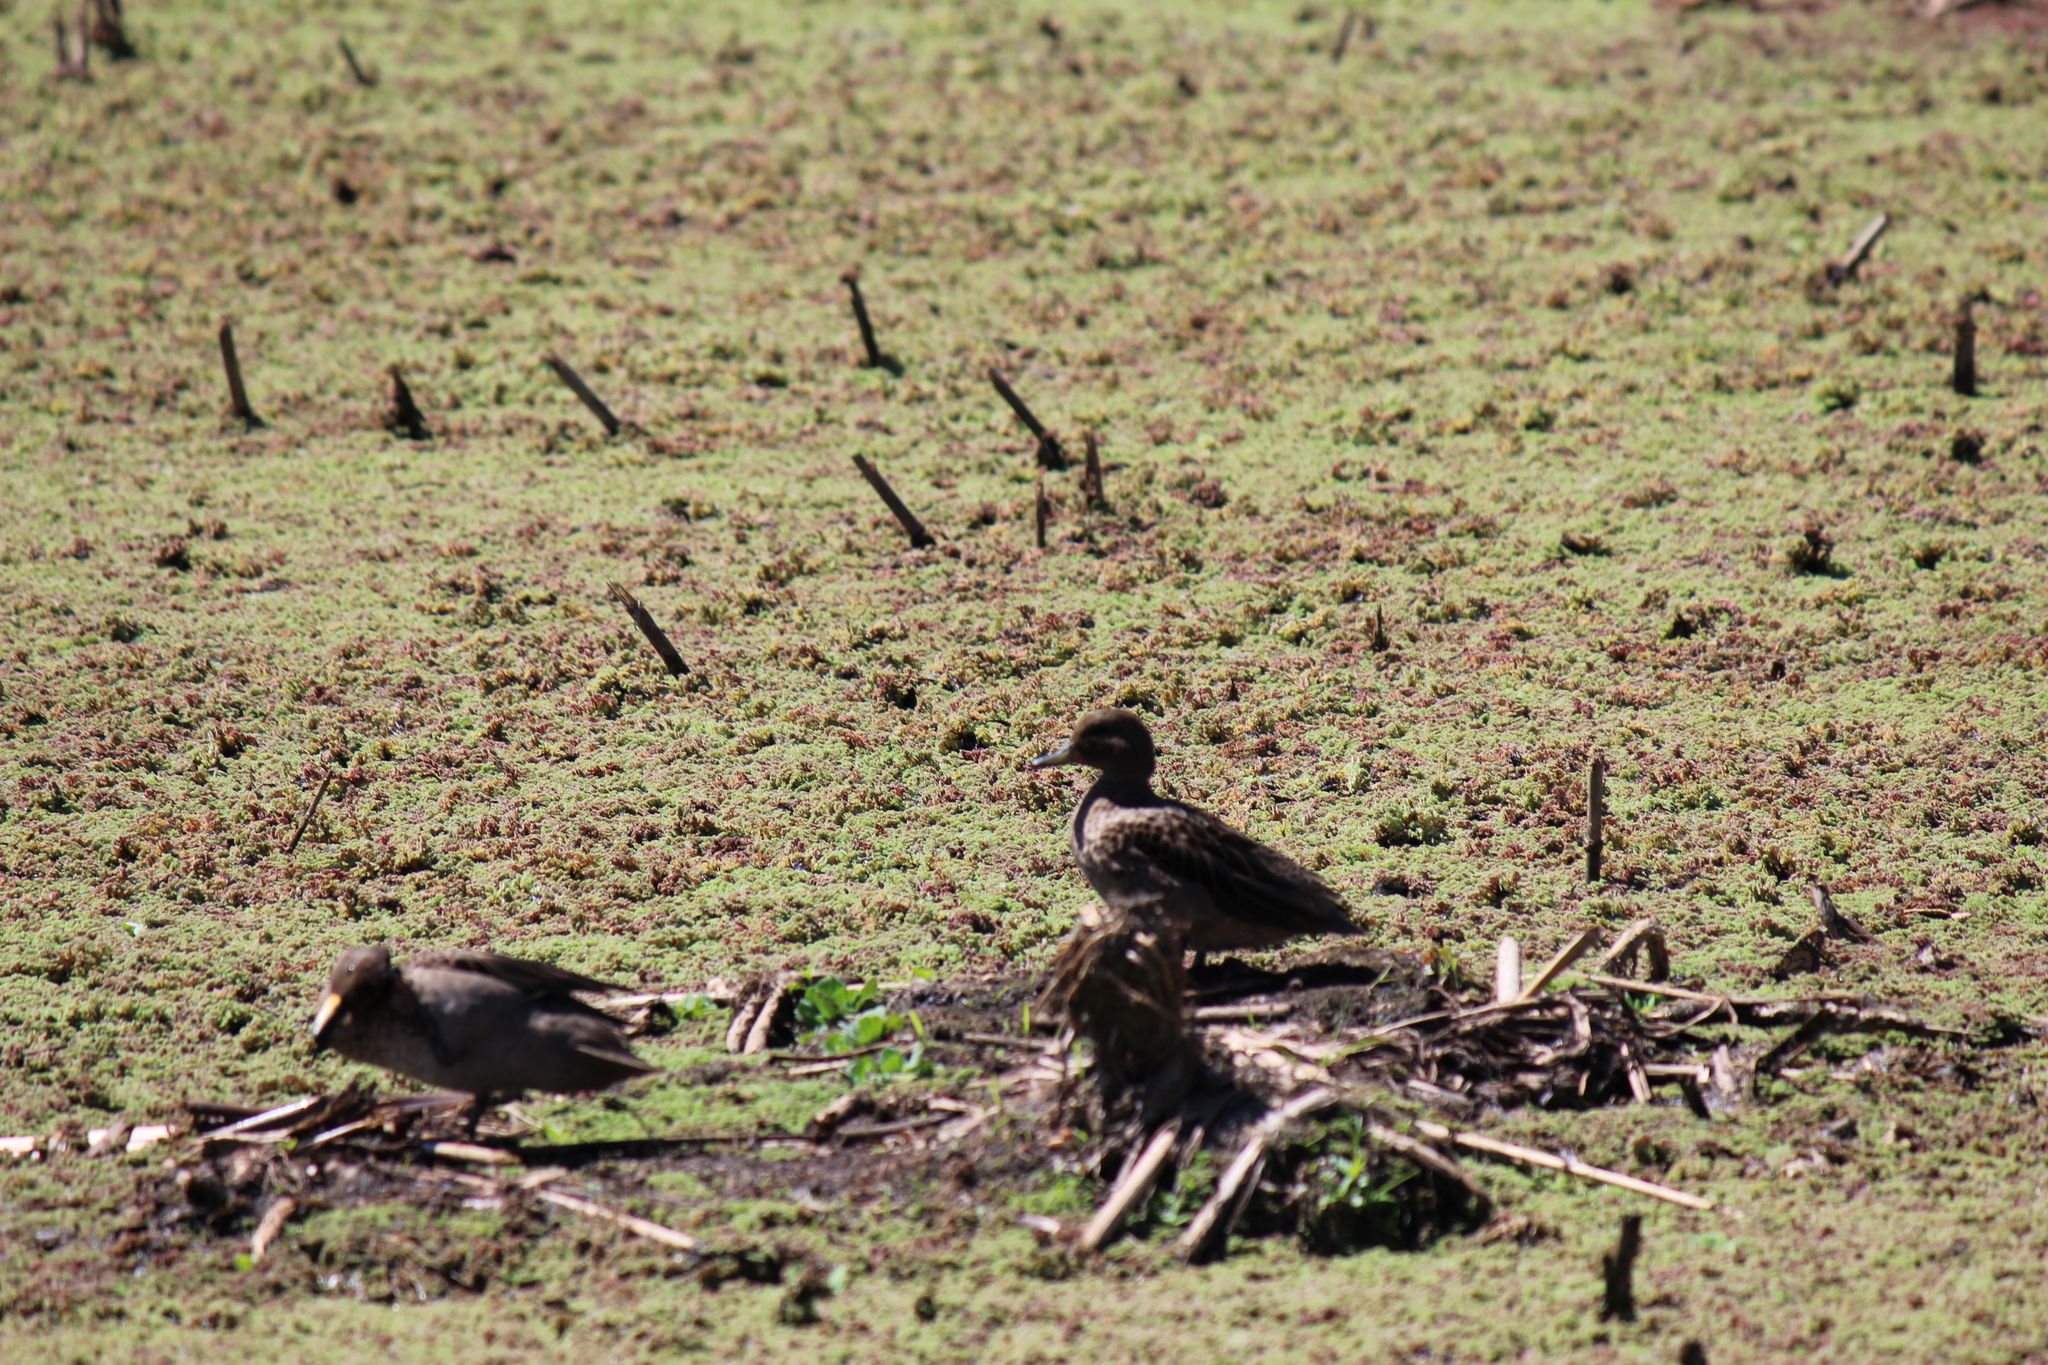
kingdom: Animalia
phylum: Chordata
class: Aves
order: Anseriformes
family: Anatidae
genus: Anas
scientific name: Anas flavirostris
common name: Yellow-billed teal
